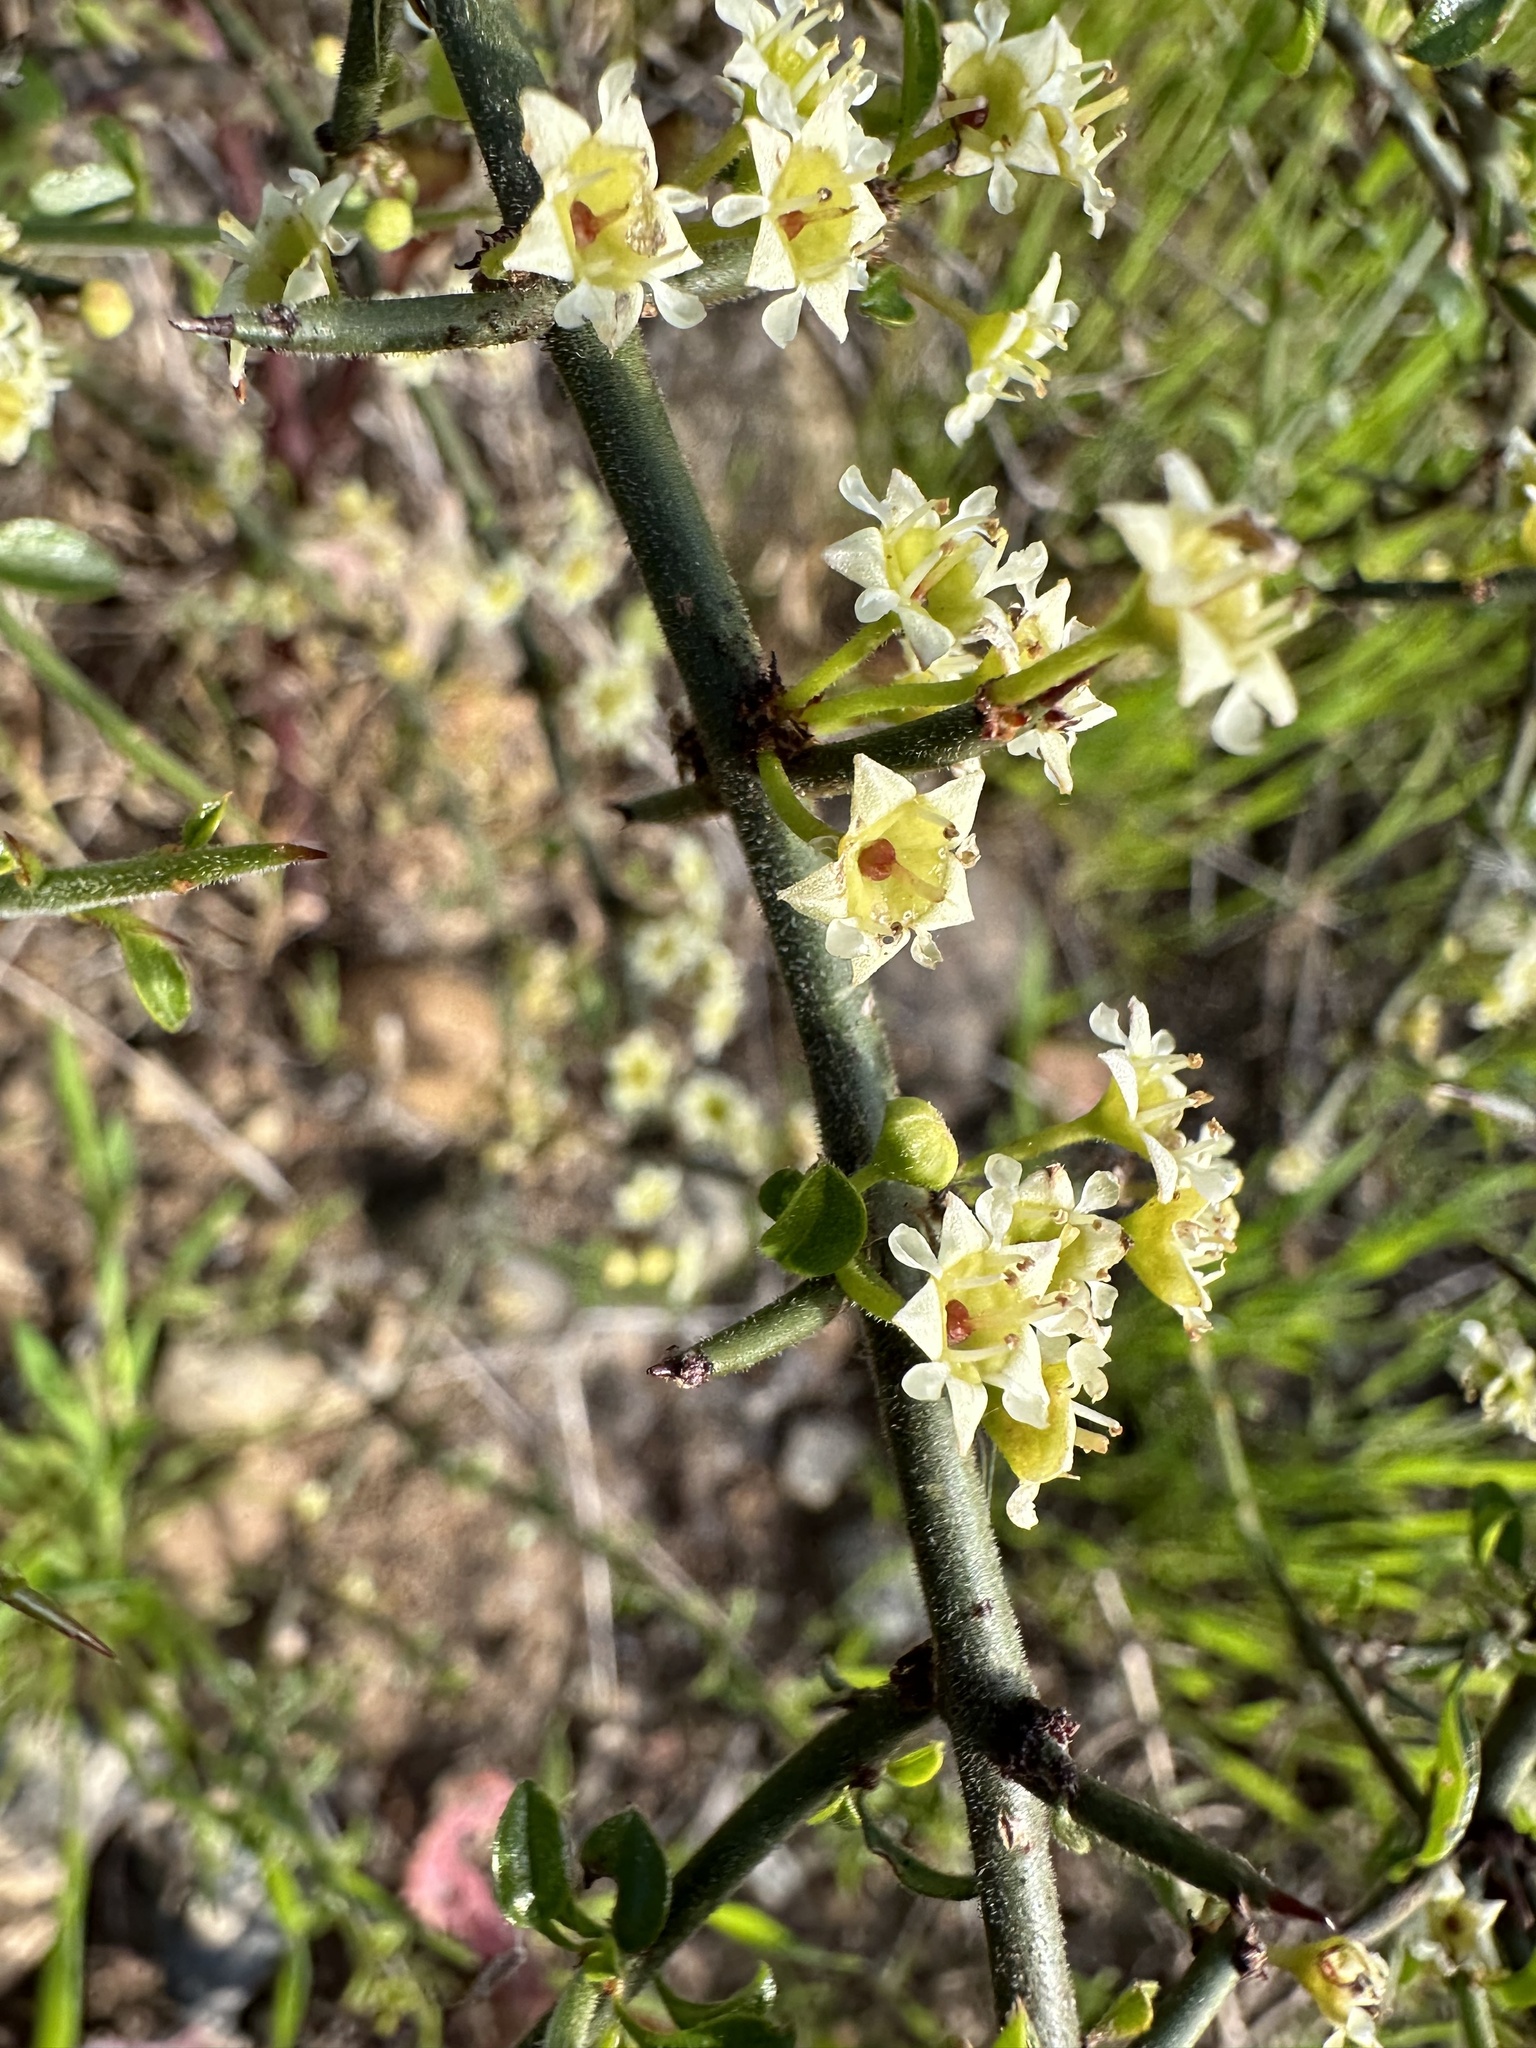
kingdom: Plantae
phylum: Tracheophyta
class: Magnoliopsida
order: Rosales
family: Rhamnaceae
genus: Adolphia
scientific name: Adolphia californica
